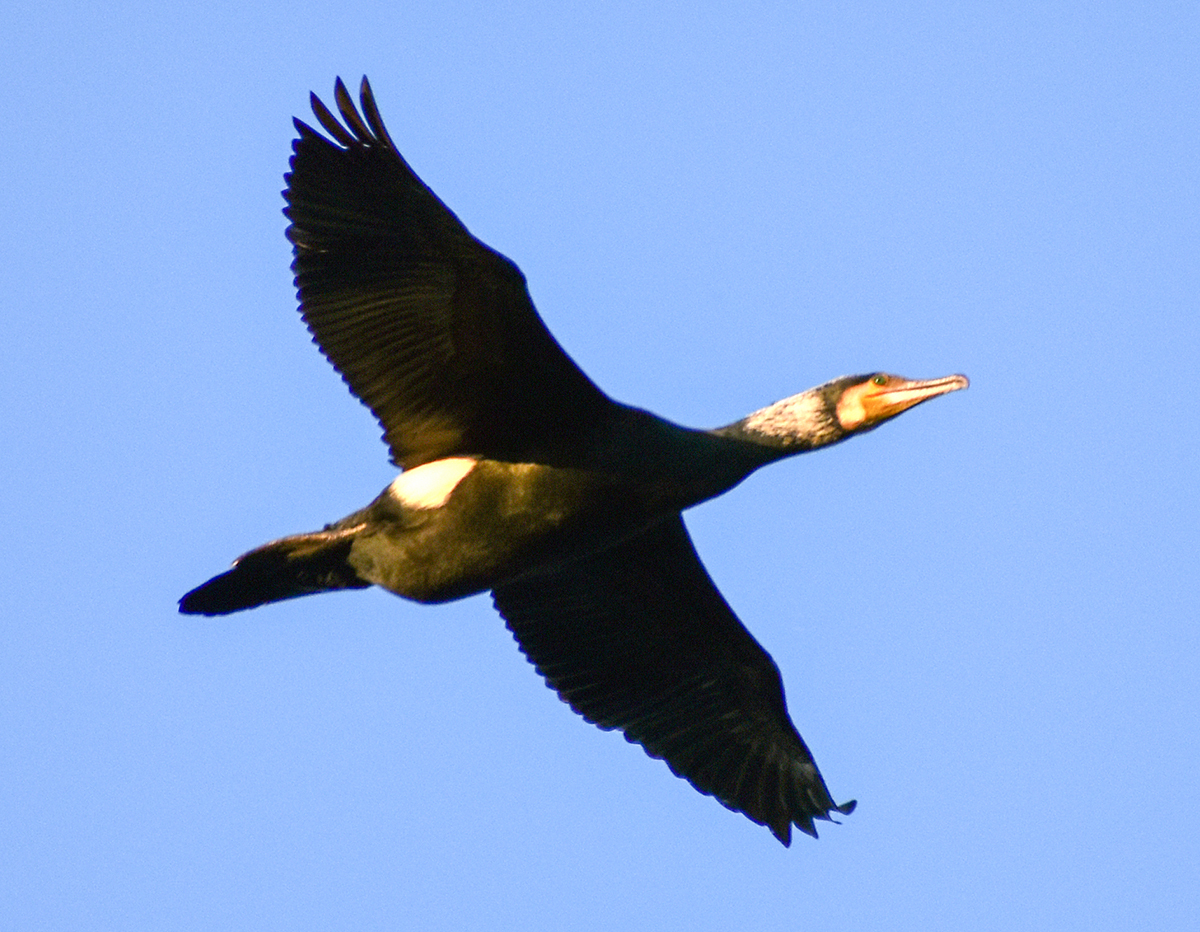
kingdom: Animalia
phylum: Chordata
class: Aves
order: Suliformes
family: Phalacrocoracidae
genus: Phalacrocorax
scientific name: Phalacrocorax carbo
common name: Great cormorant
